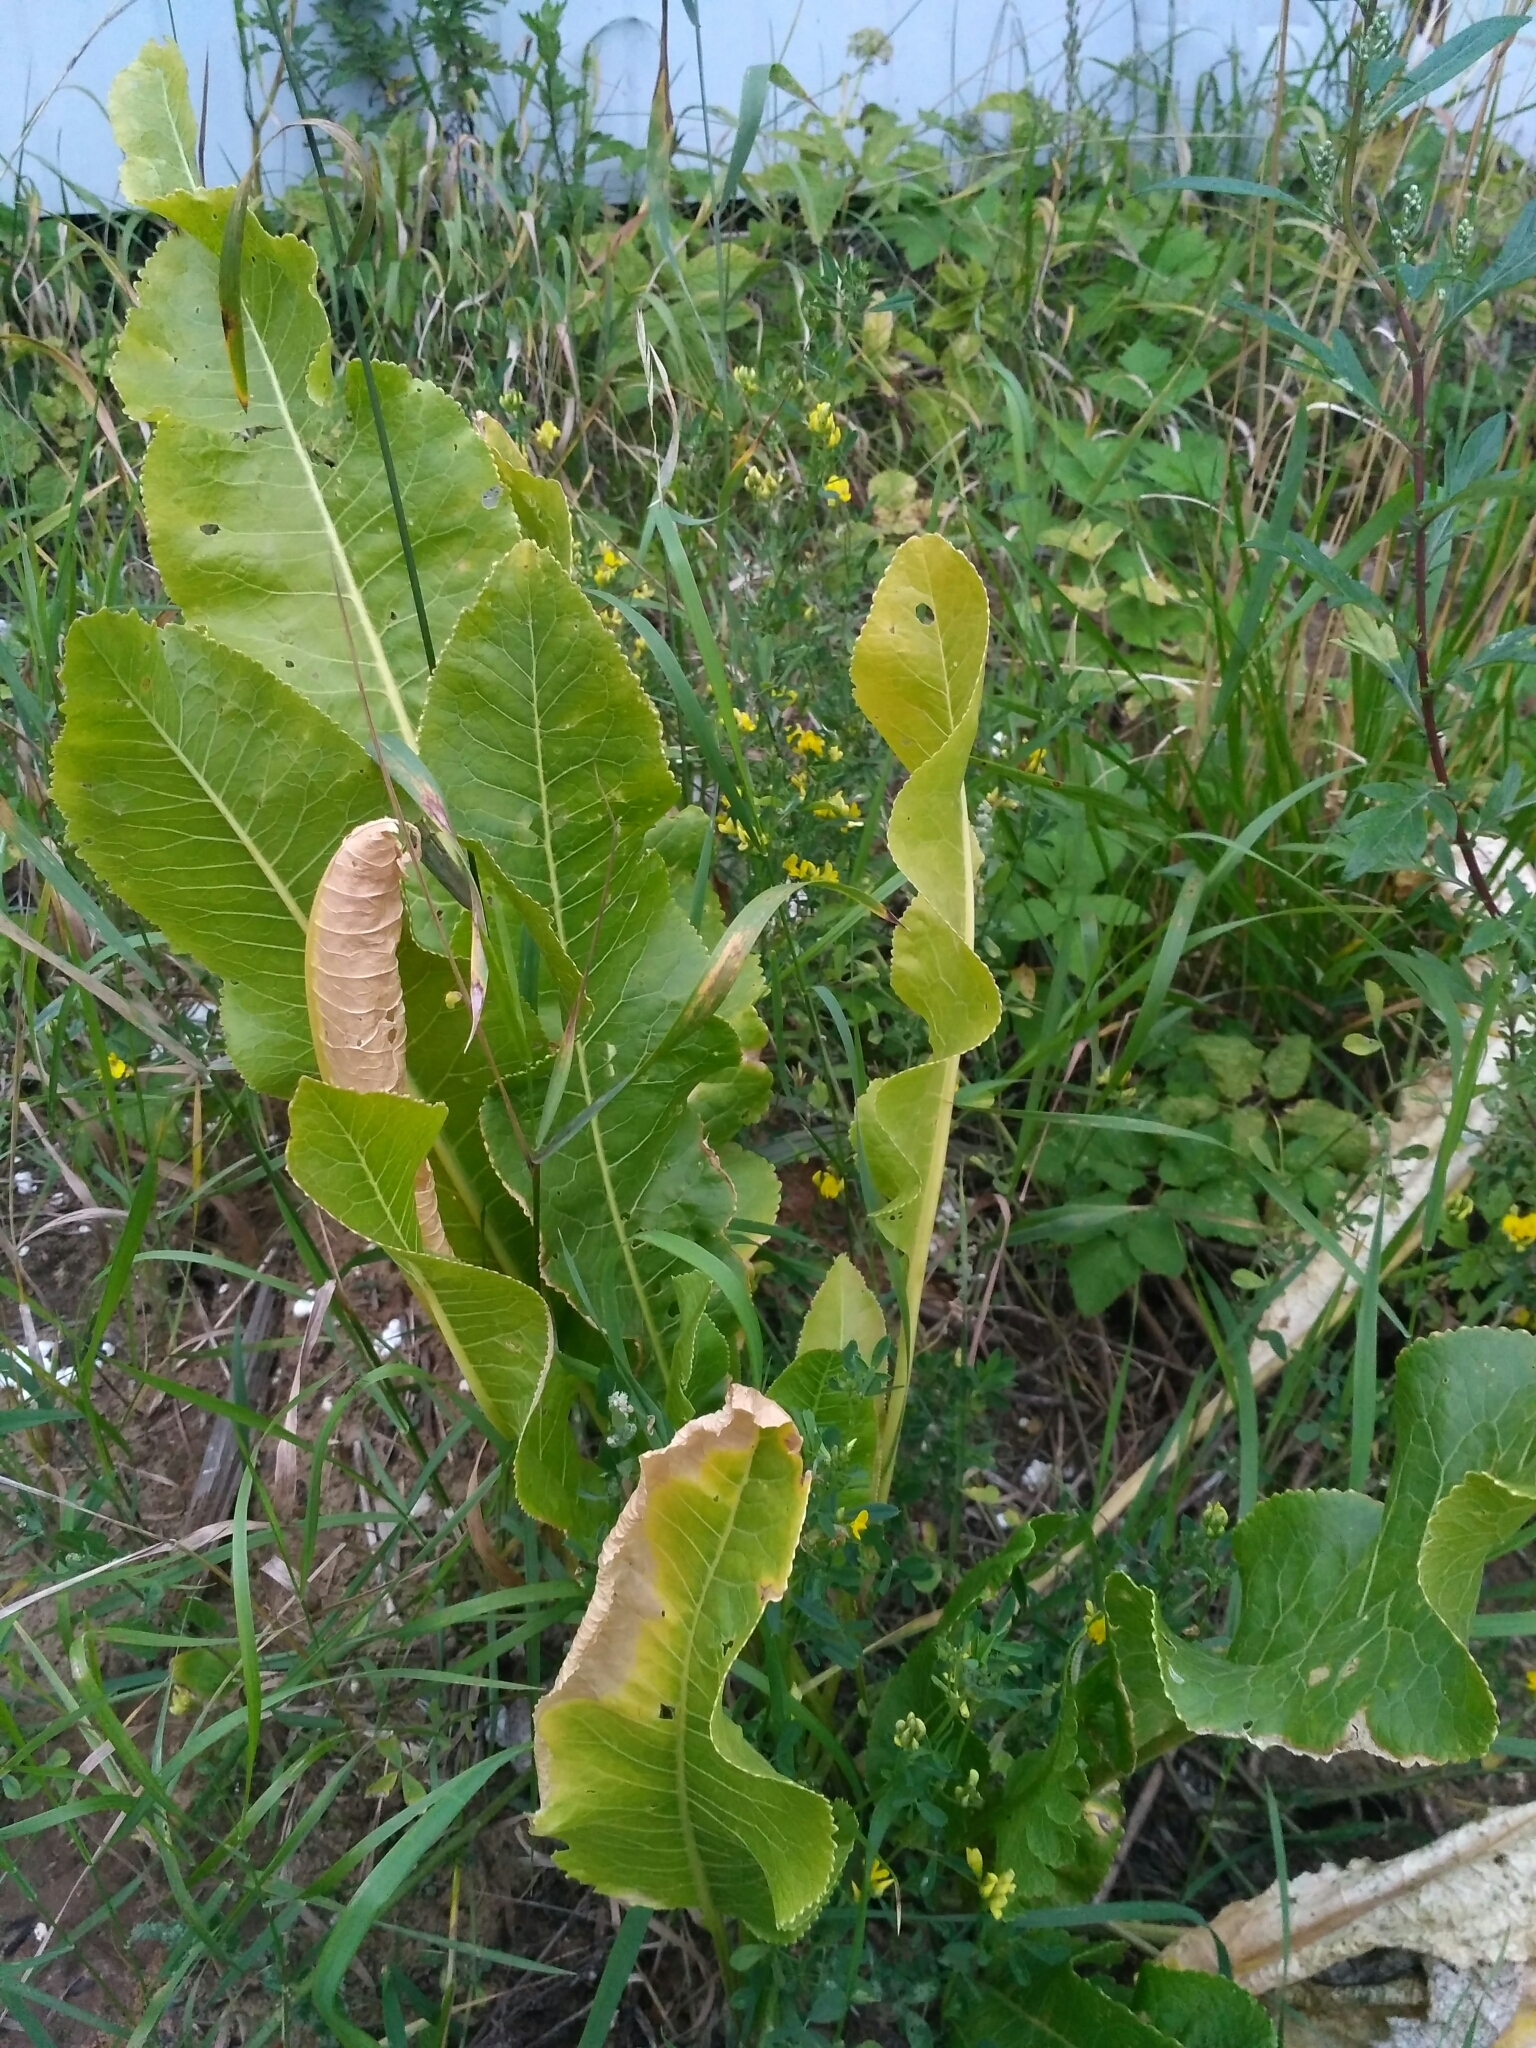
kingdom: Plantae
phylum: Tracheophyta
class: Magnoliopsida
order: Brassicales
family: Brassicaceae
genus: Armoracia
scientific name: Armoracia rusticana
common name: Horseradish
